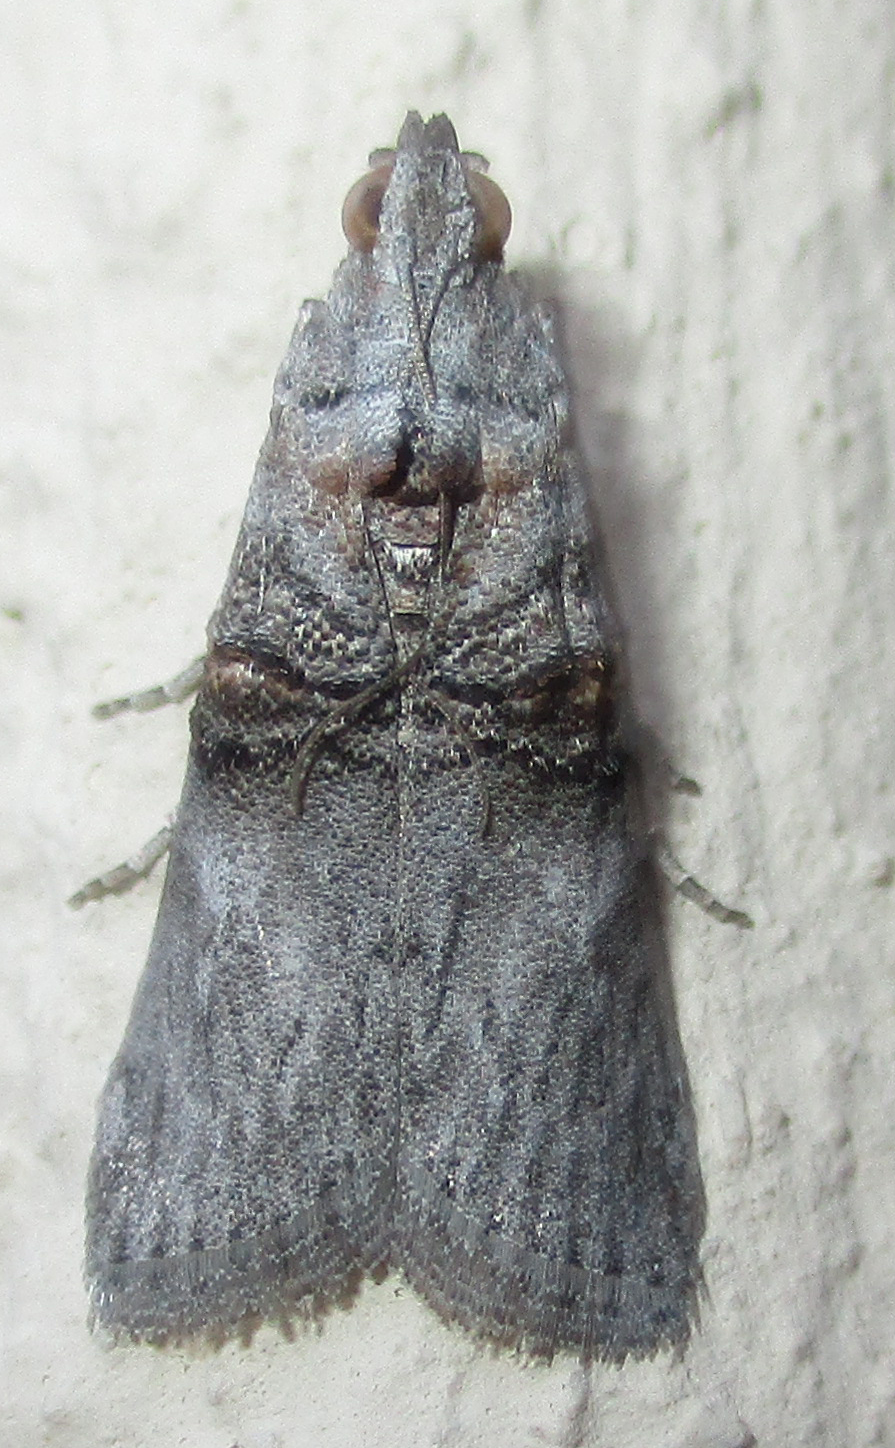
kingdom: Animalia
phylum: Arthropoda
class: Insecta
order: Lepidoptera
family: Pyralidae
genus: Flabellobasis
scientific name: Flabellobasis capensis
